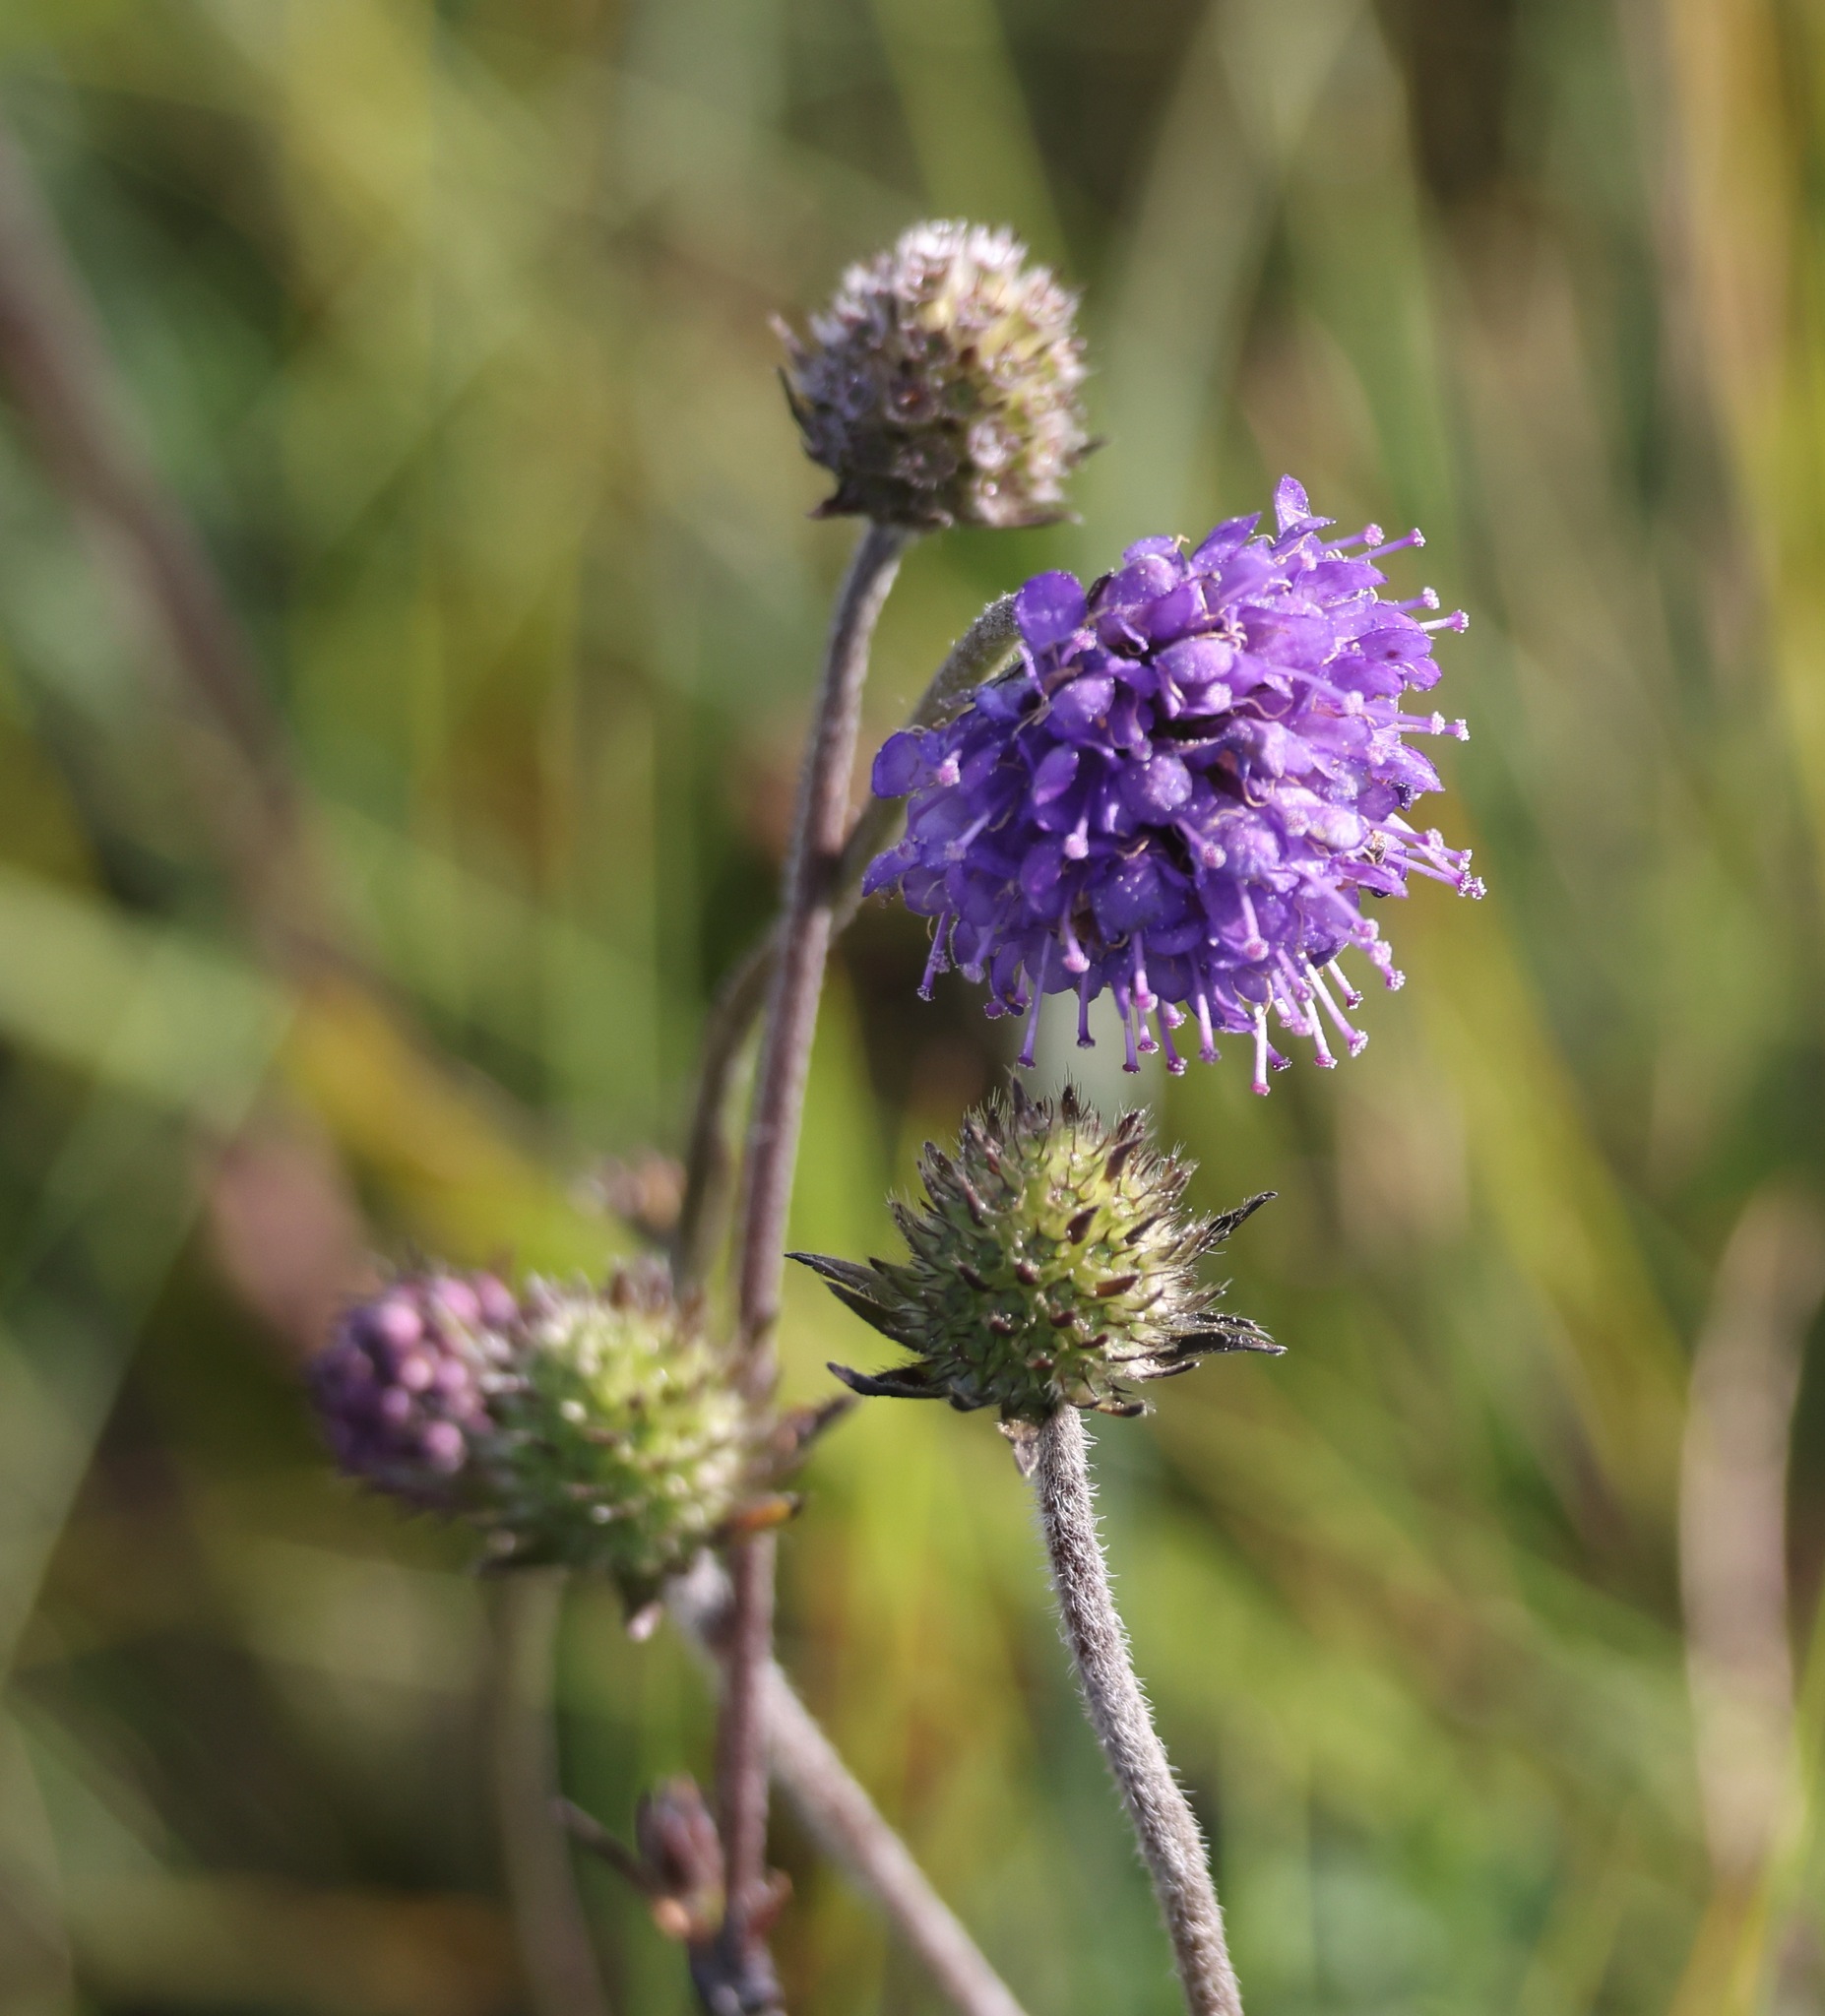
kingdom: Plantae
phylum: Tracheophyta
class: Magnoliopsida
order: Dipsacales
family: Caprifoliaceae
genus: Succisa
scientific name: Succisa pratensis
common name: Devil's-bit
